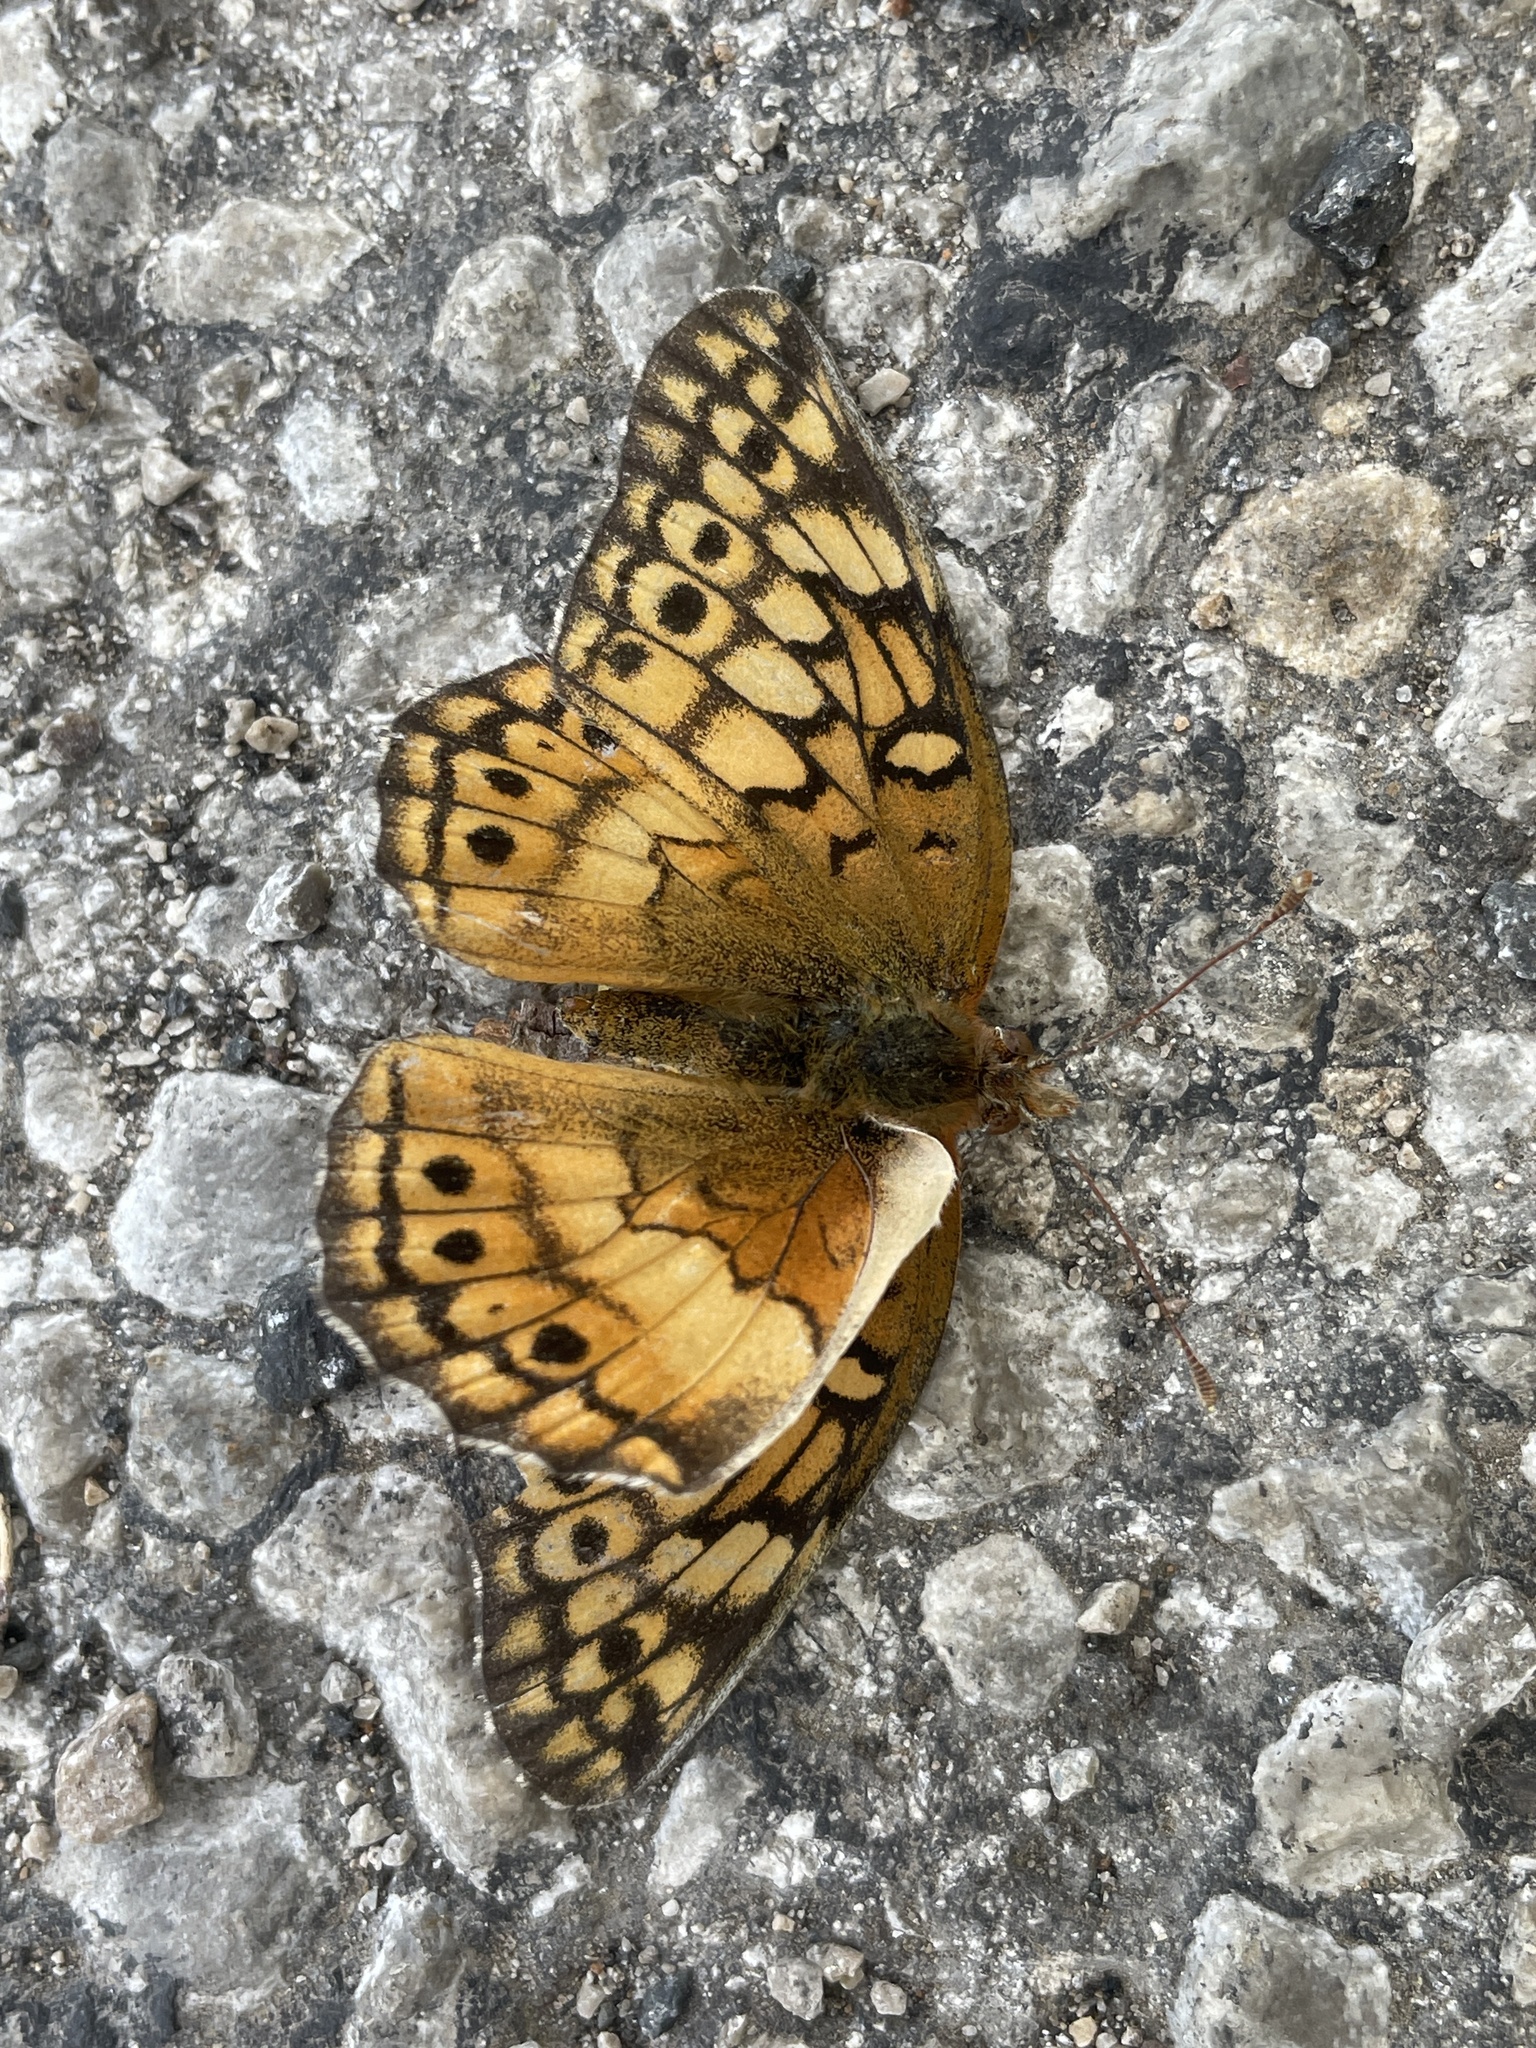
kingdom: Animalia
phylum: Arthropoda
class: Insecta
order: Lepidoptera
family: Nymphalidae
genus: Euptoieta
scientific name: Euptoieta claudia
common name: Variegated fritillary
